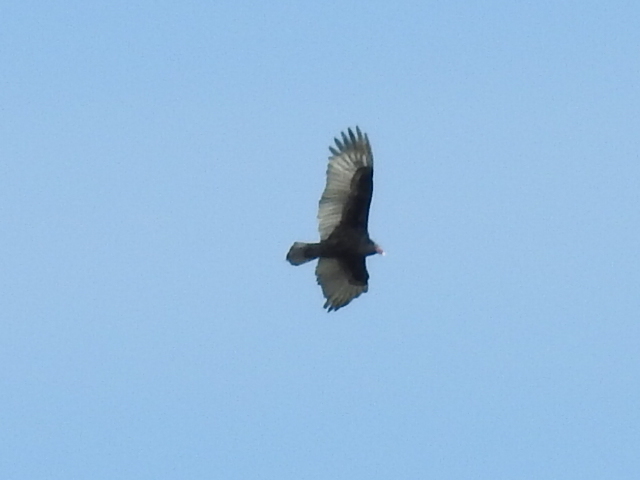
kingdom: Animalia
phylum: Chordata
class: Aves
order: Accipitriformes
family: Cathartidae
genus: Cathartes
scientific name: Cathartes aura
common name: Turkey vulture
